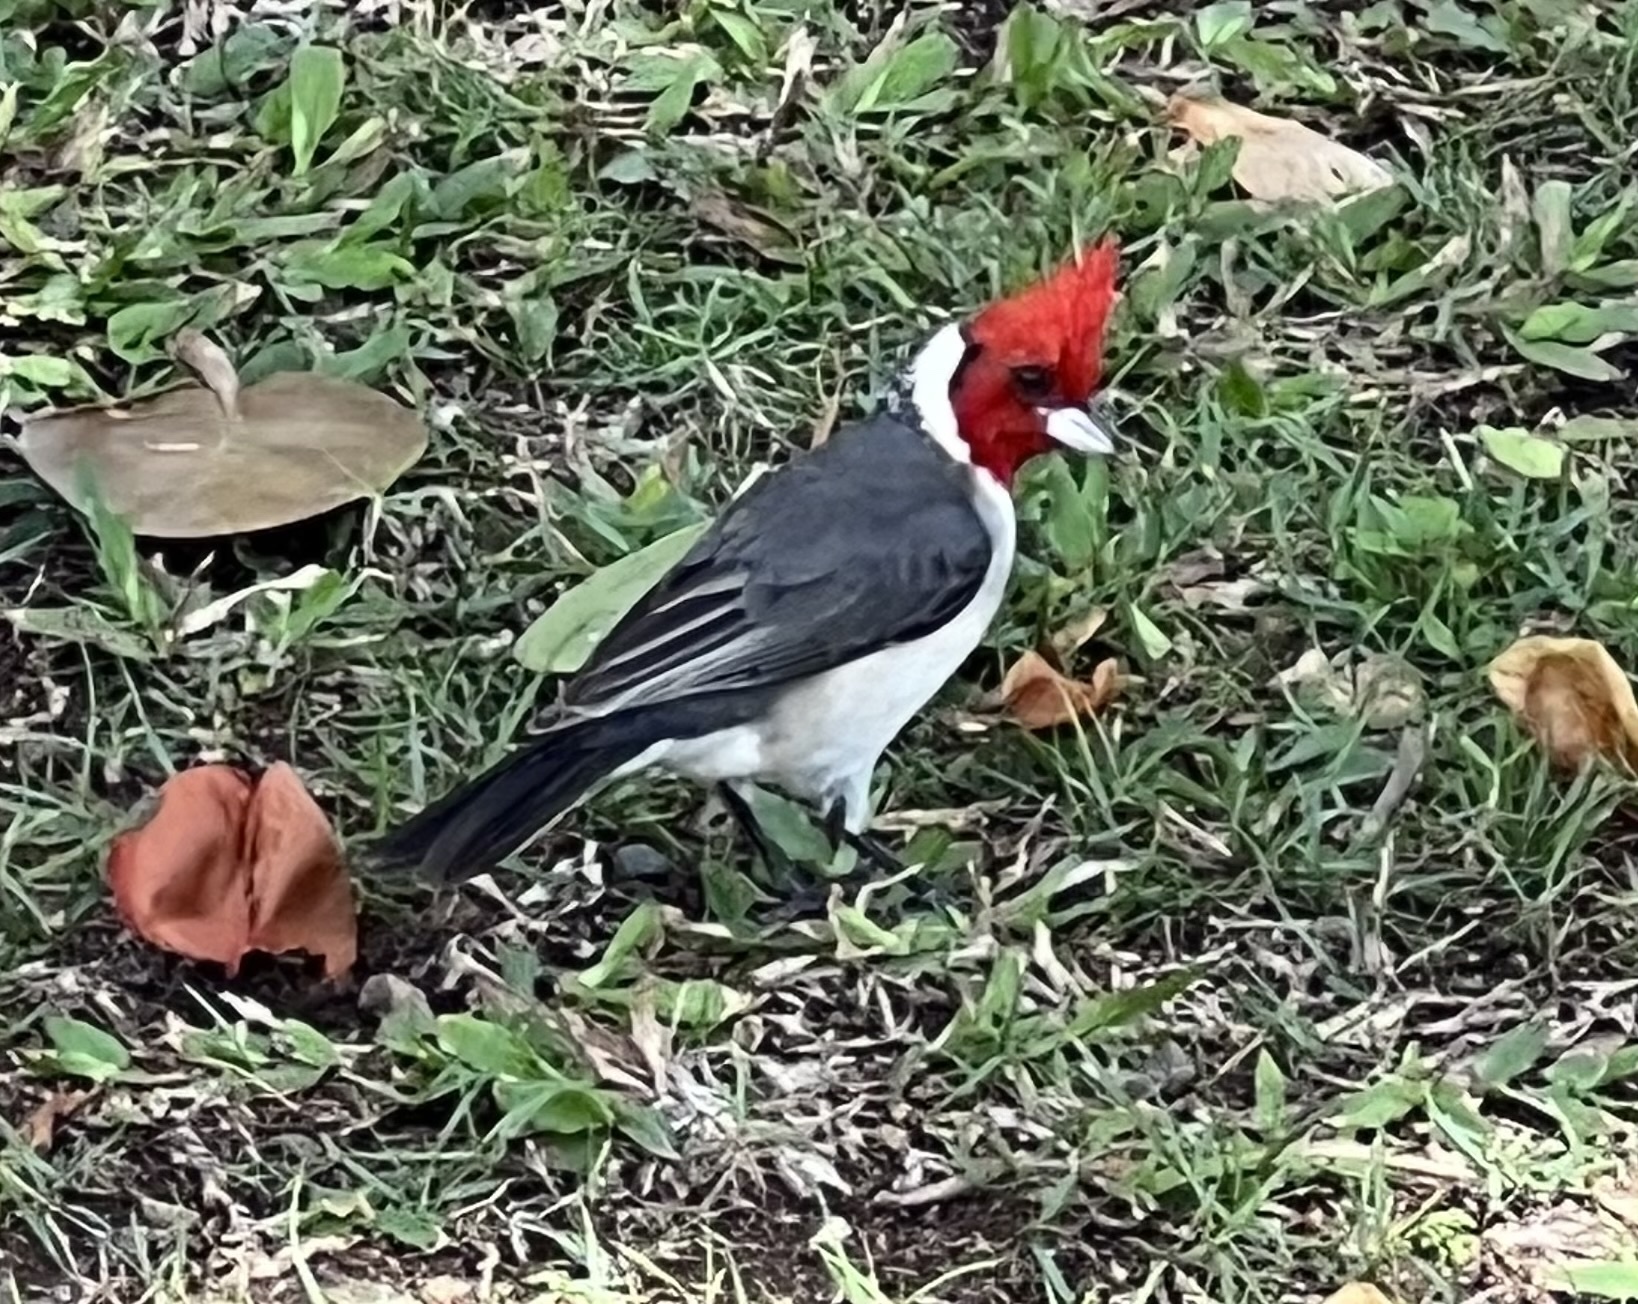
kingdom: Animalia
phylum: Chordata
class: Aves
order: Passeriformes
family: Thraupidae
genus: Paroaria
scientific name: Paroaria coronata
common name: Red-crested cardinal
